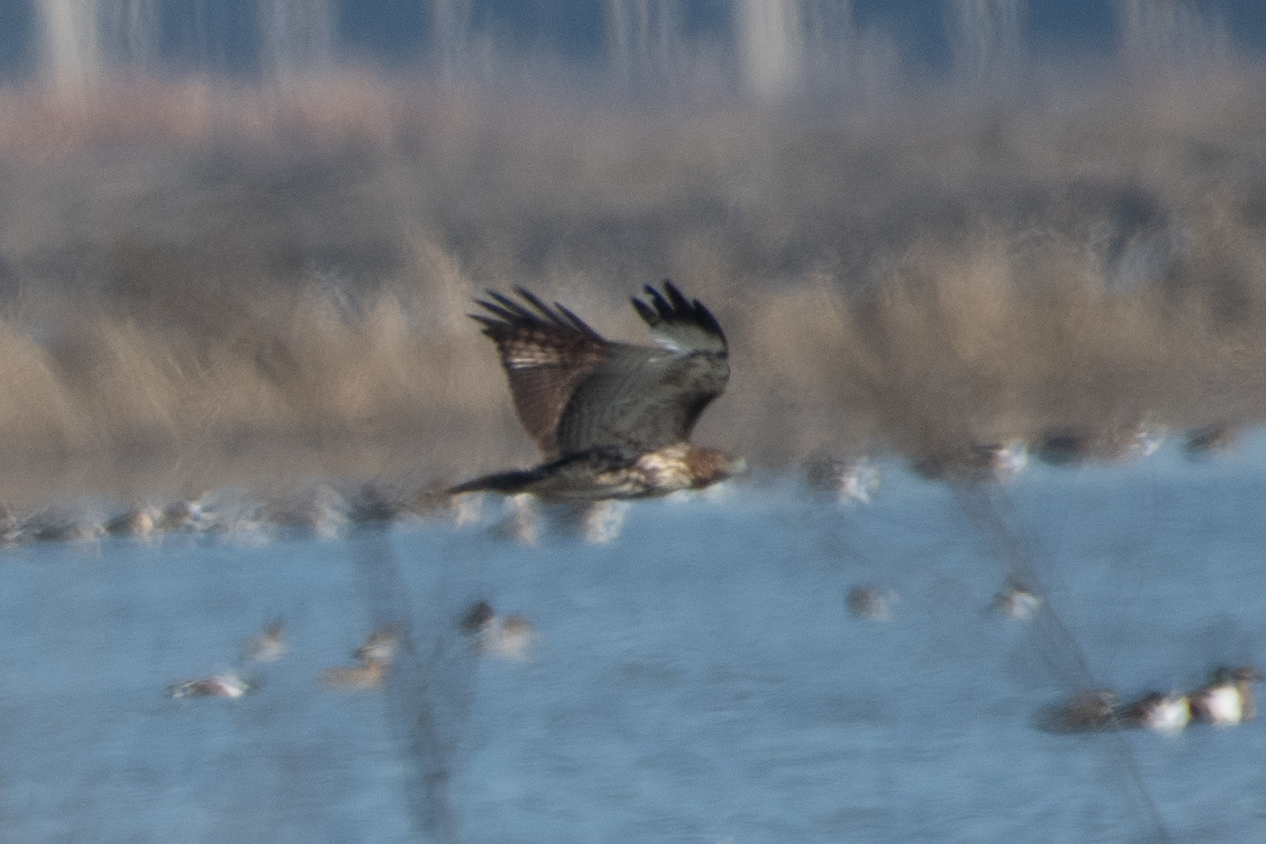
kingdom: Animalia
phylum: Chordata
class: Aves
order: Accipitriformes
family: Accipitridae
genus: Buteo
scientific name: Buteo jamaicensis
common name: Red-tailed hawk
